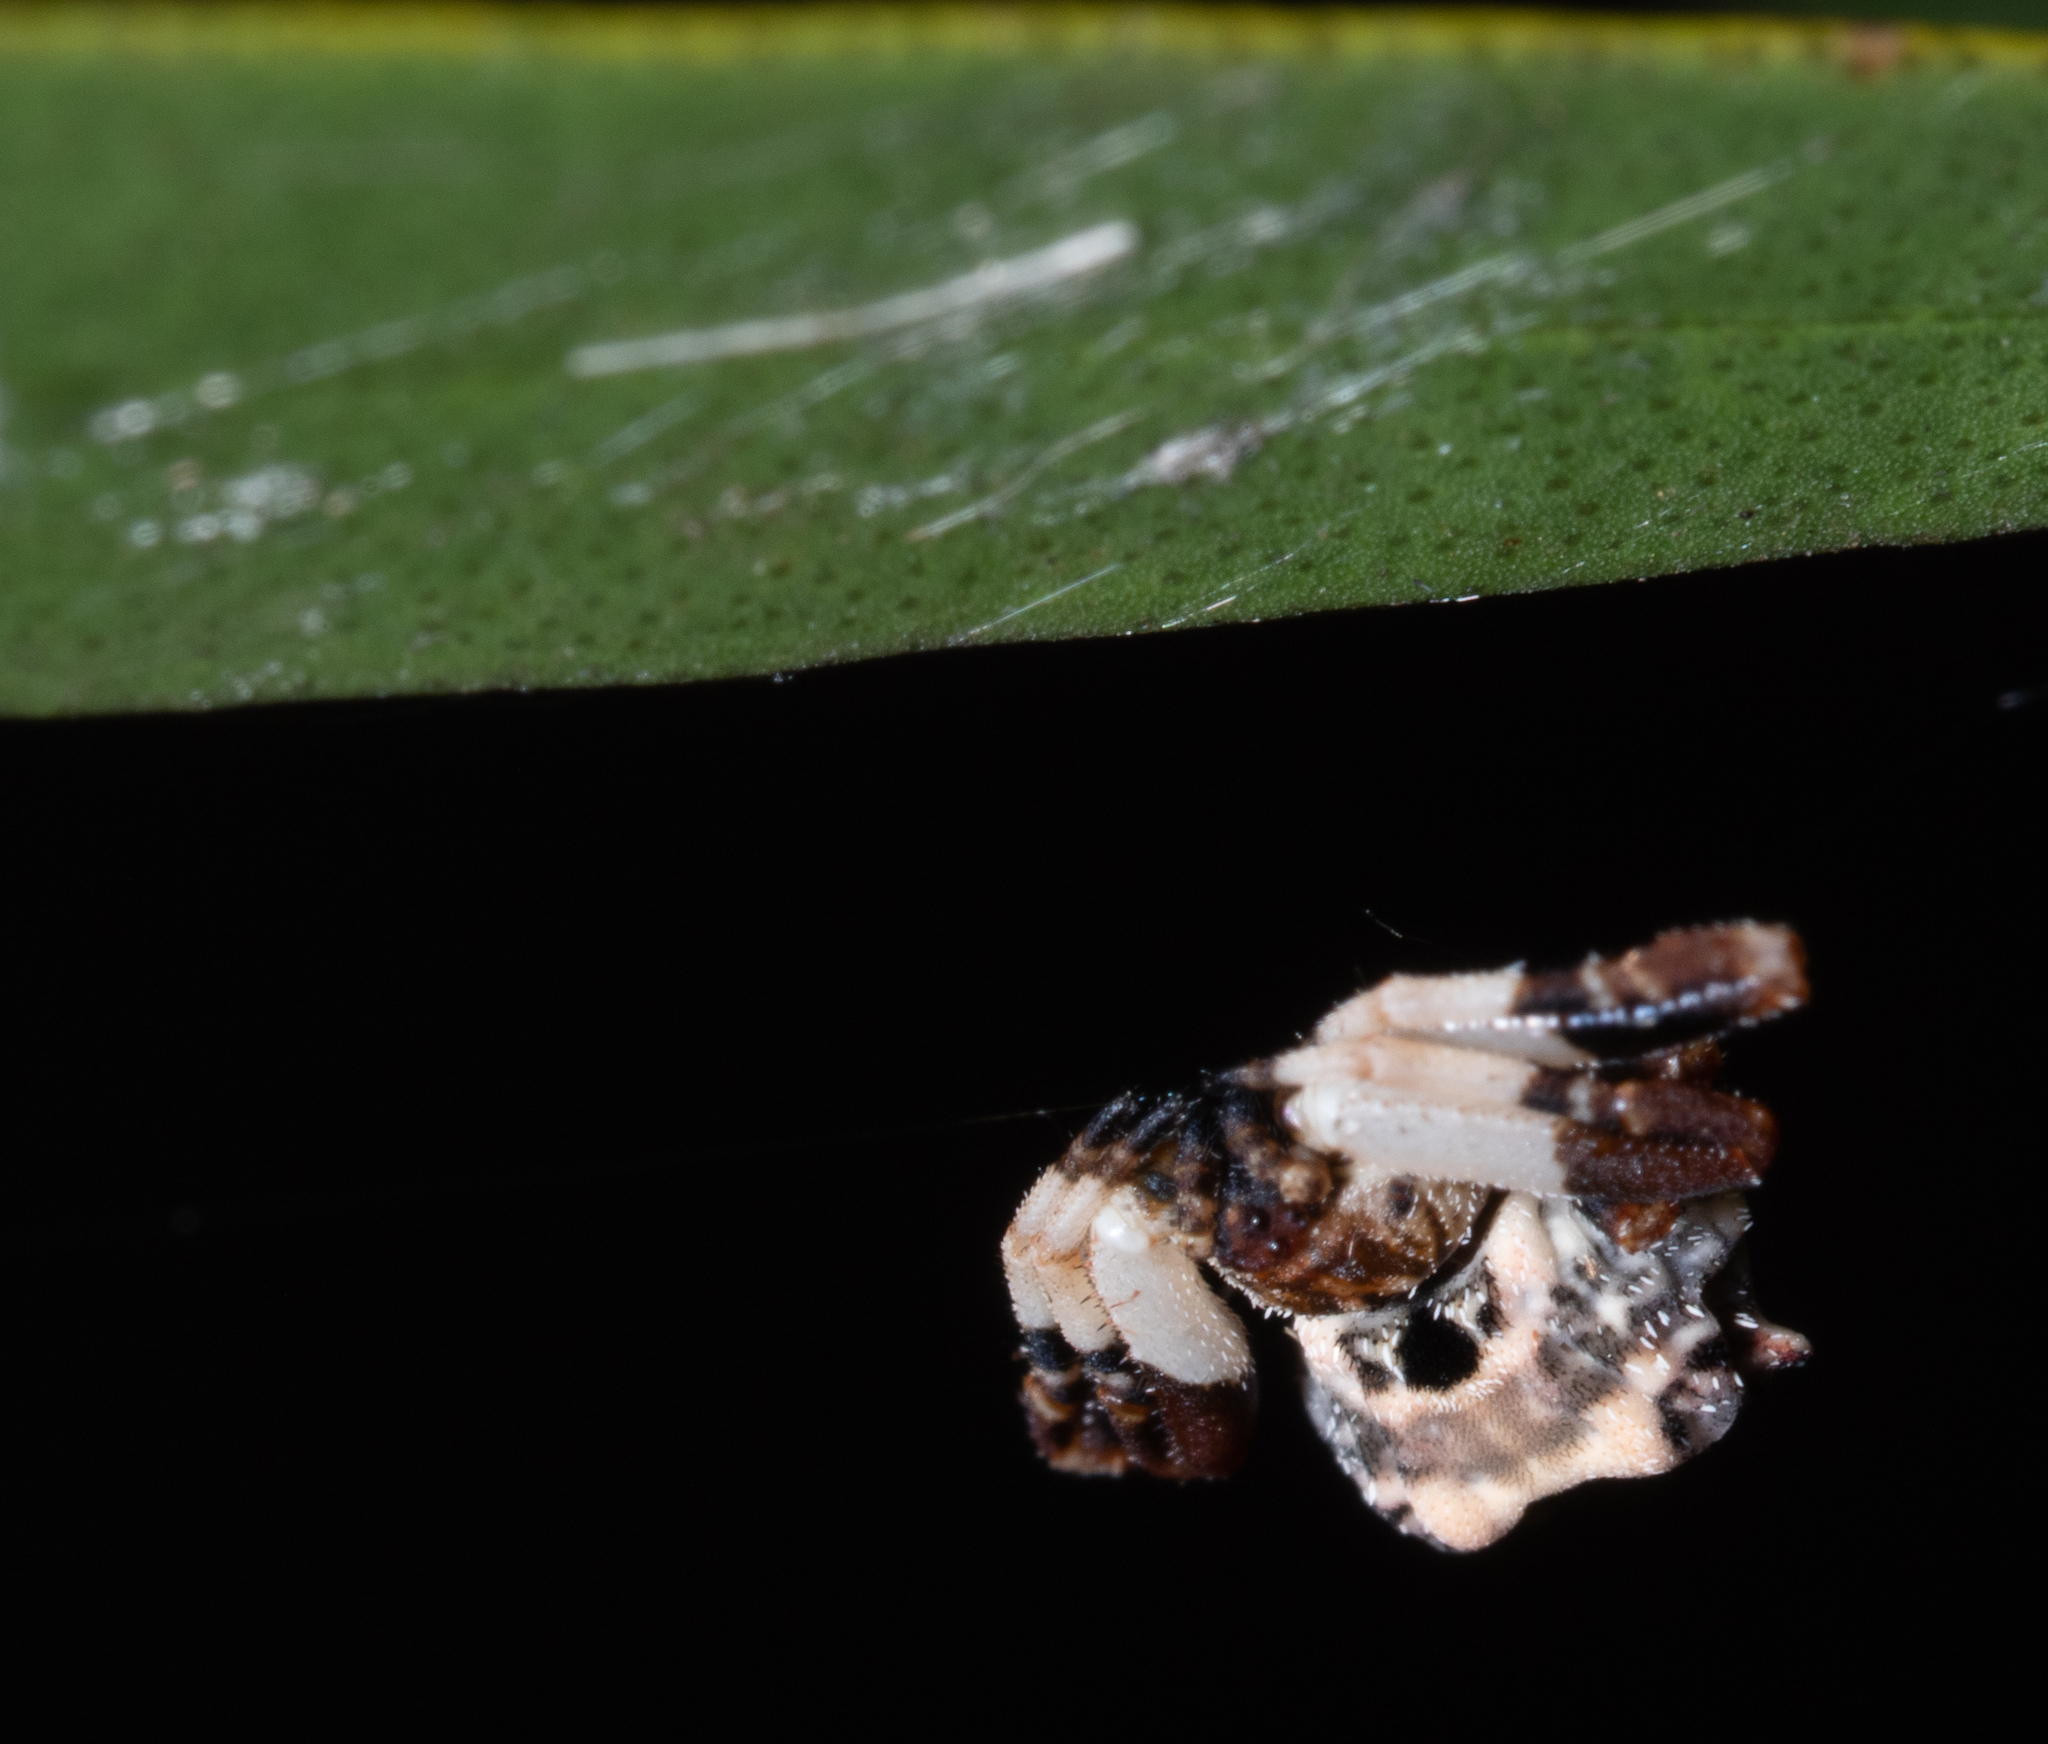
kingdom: Animalia
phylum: Arthropoda
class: Arachnida
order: Araneae
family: Araneidae
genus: Celaenia
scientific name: Celaenia excavata
